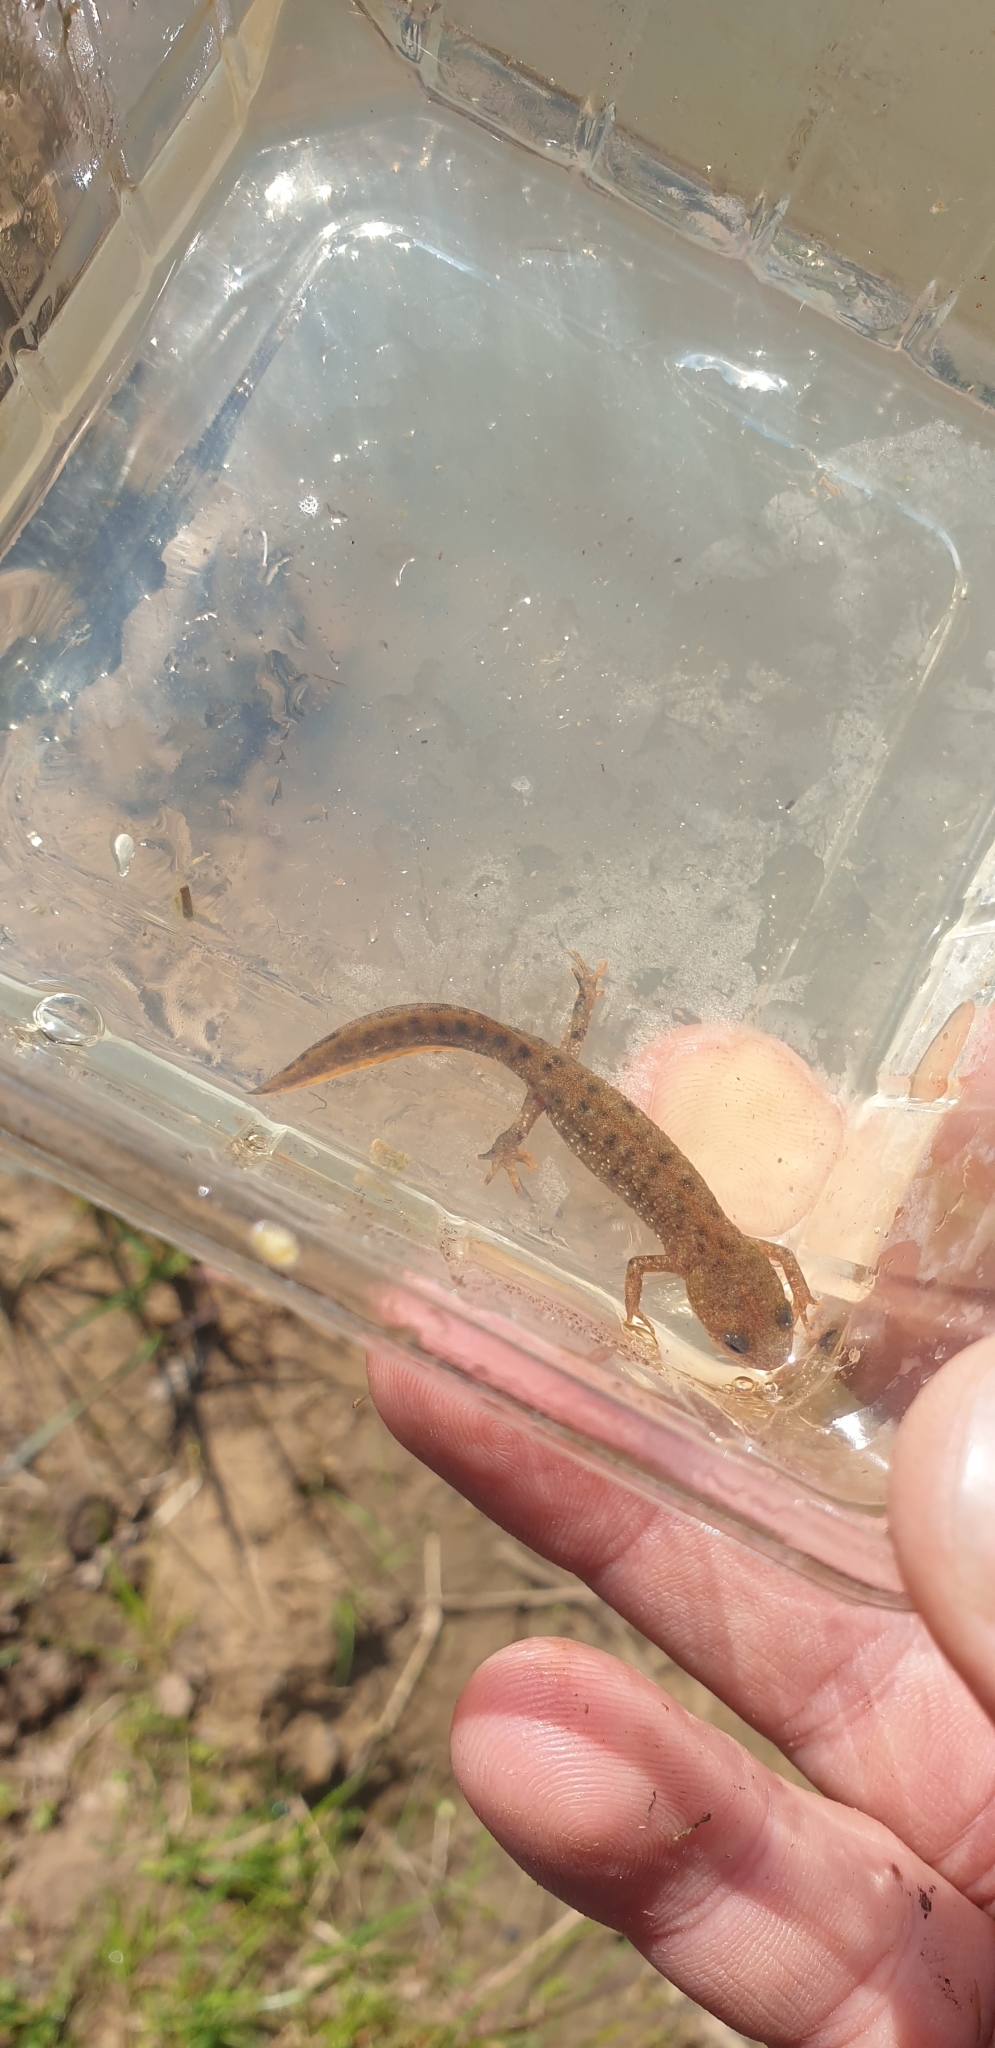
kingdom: Animalia
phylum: Chordata
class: Amphibia
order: Caudata
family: Salamandridae
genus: Triturus
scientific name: Triturus cristatus
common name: Crested newt
